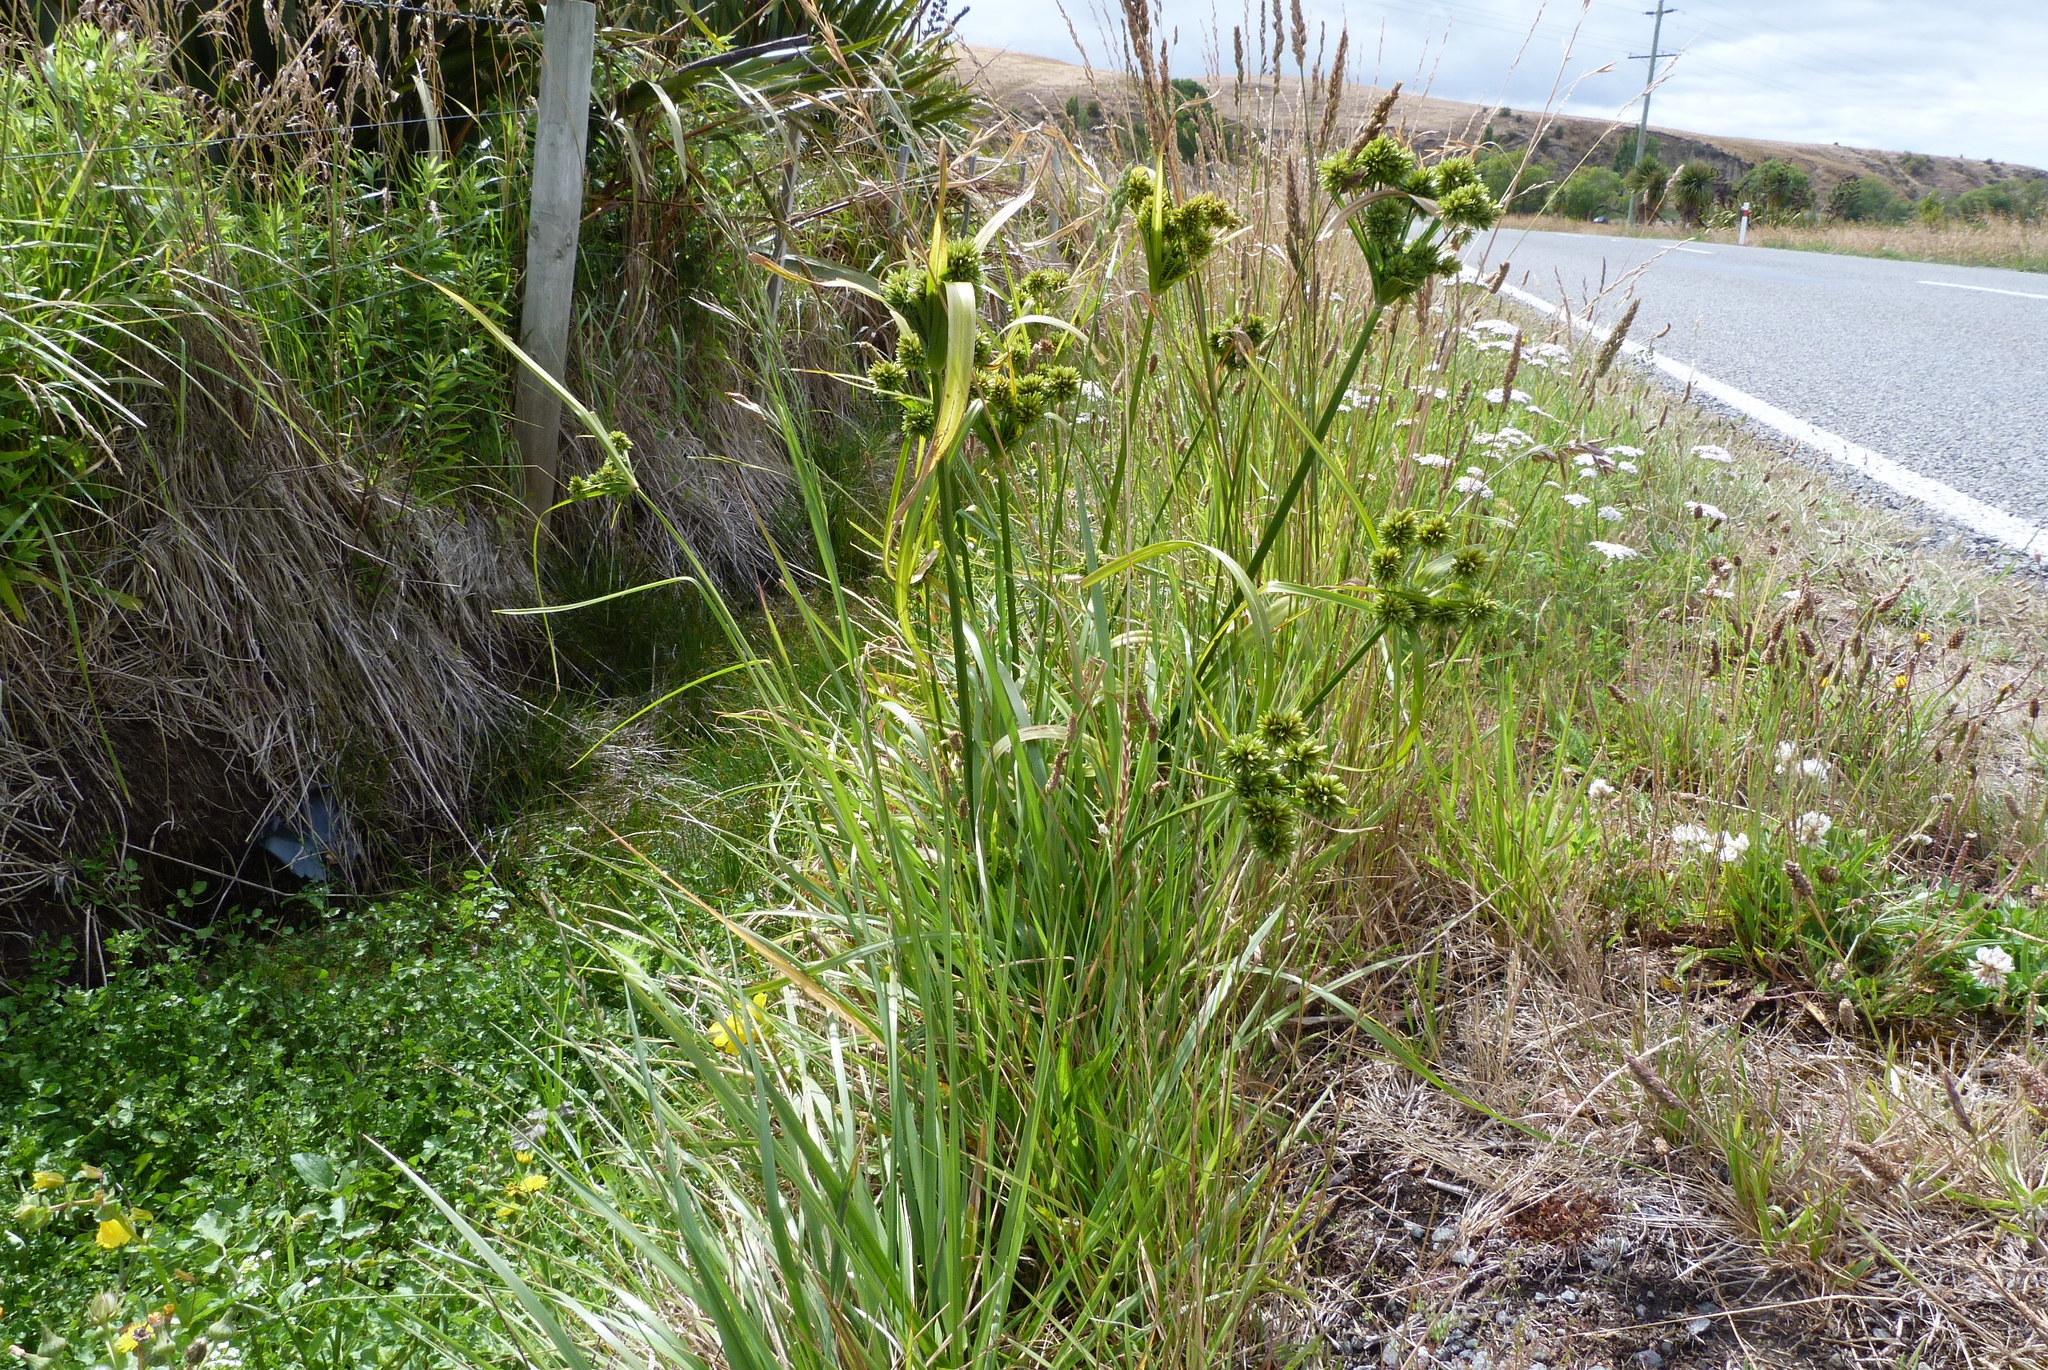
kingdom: Plantae
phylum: Tracheophyta
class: Liliopsida
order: Poales
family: Cyperaceae
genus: Cyperus
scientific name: Cyperus eragrostis
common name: Tall flatsedge
